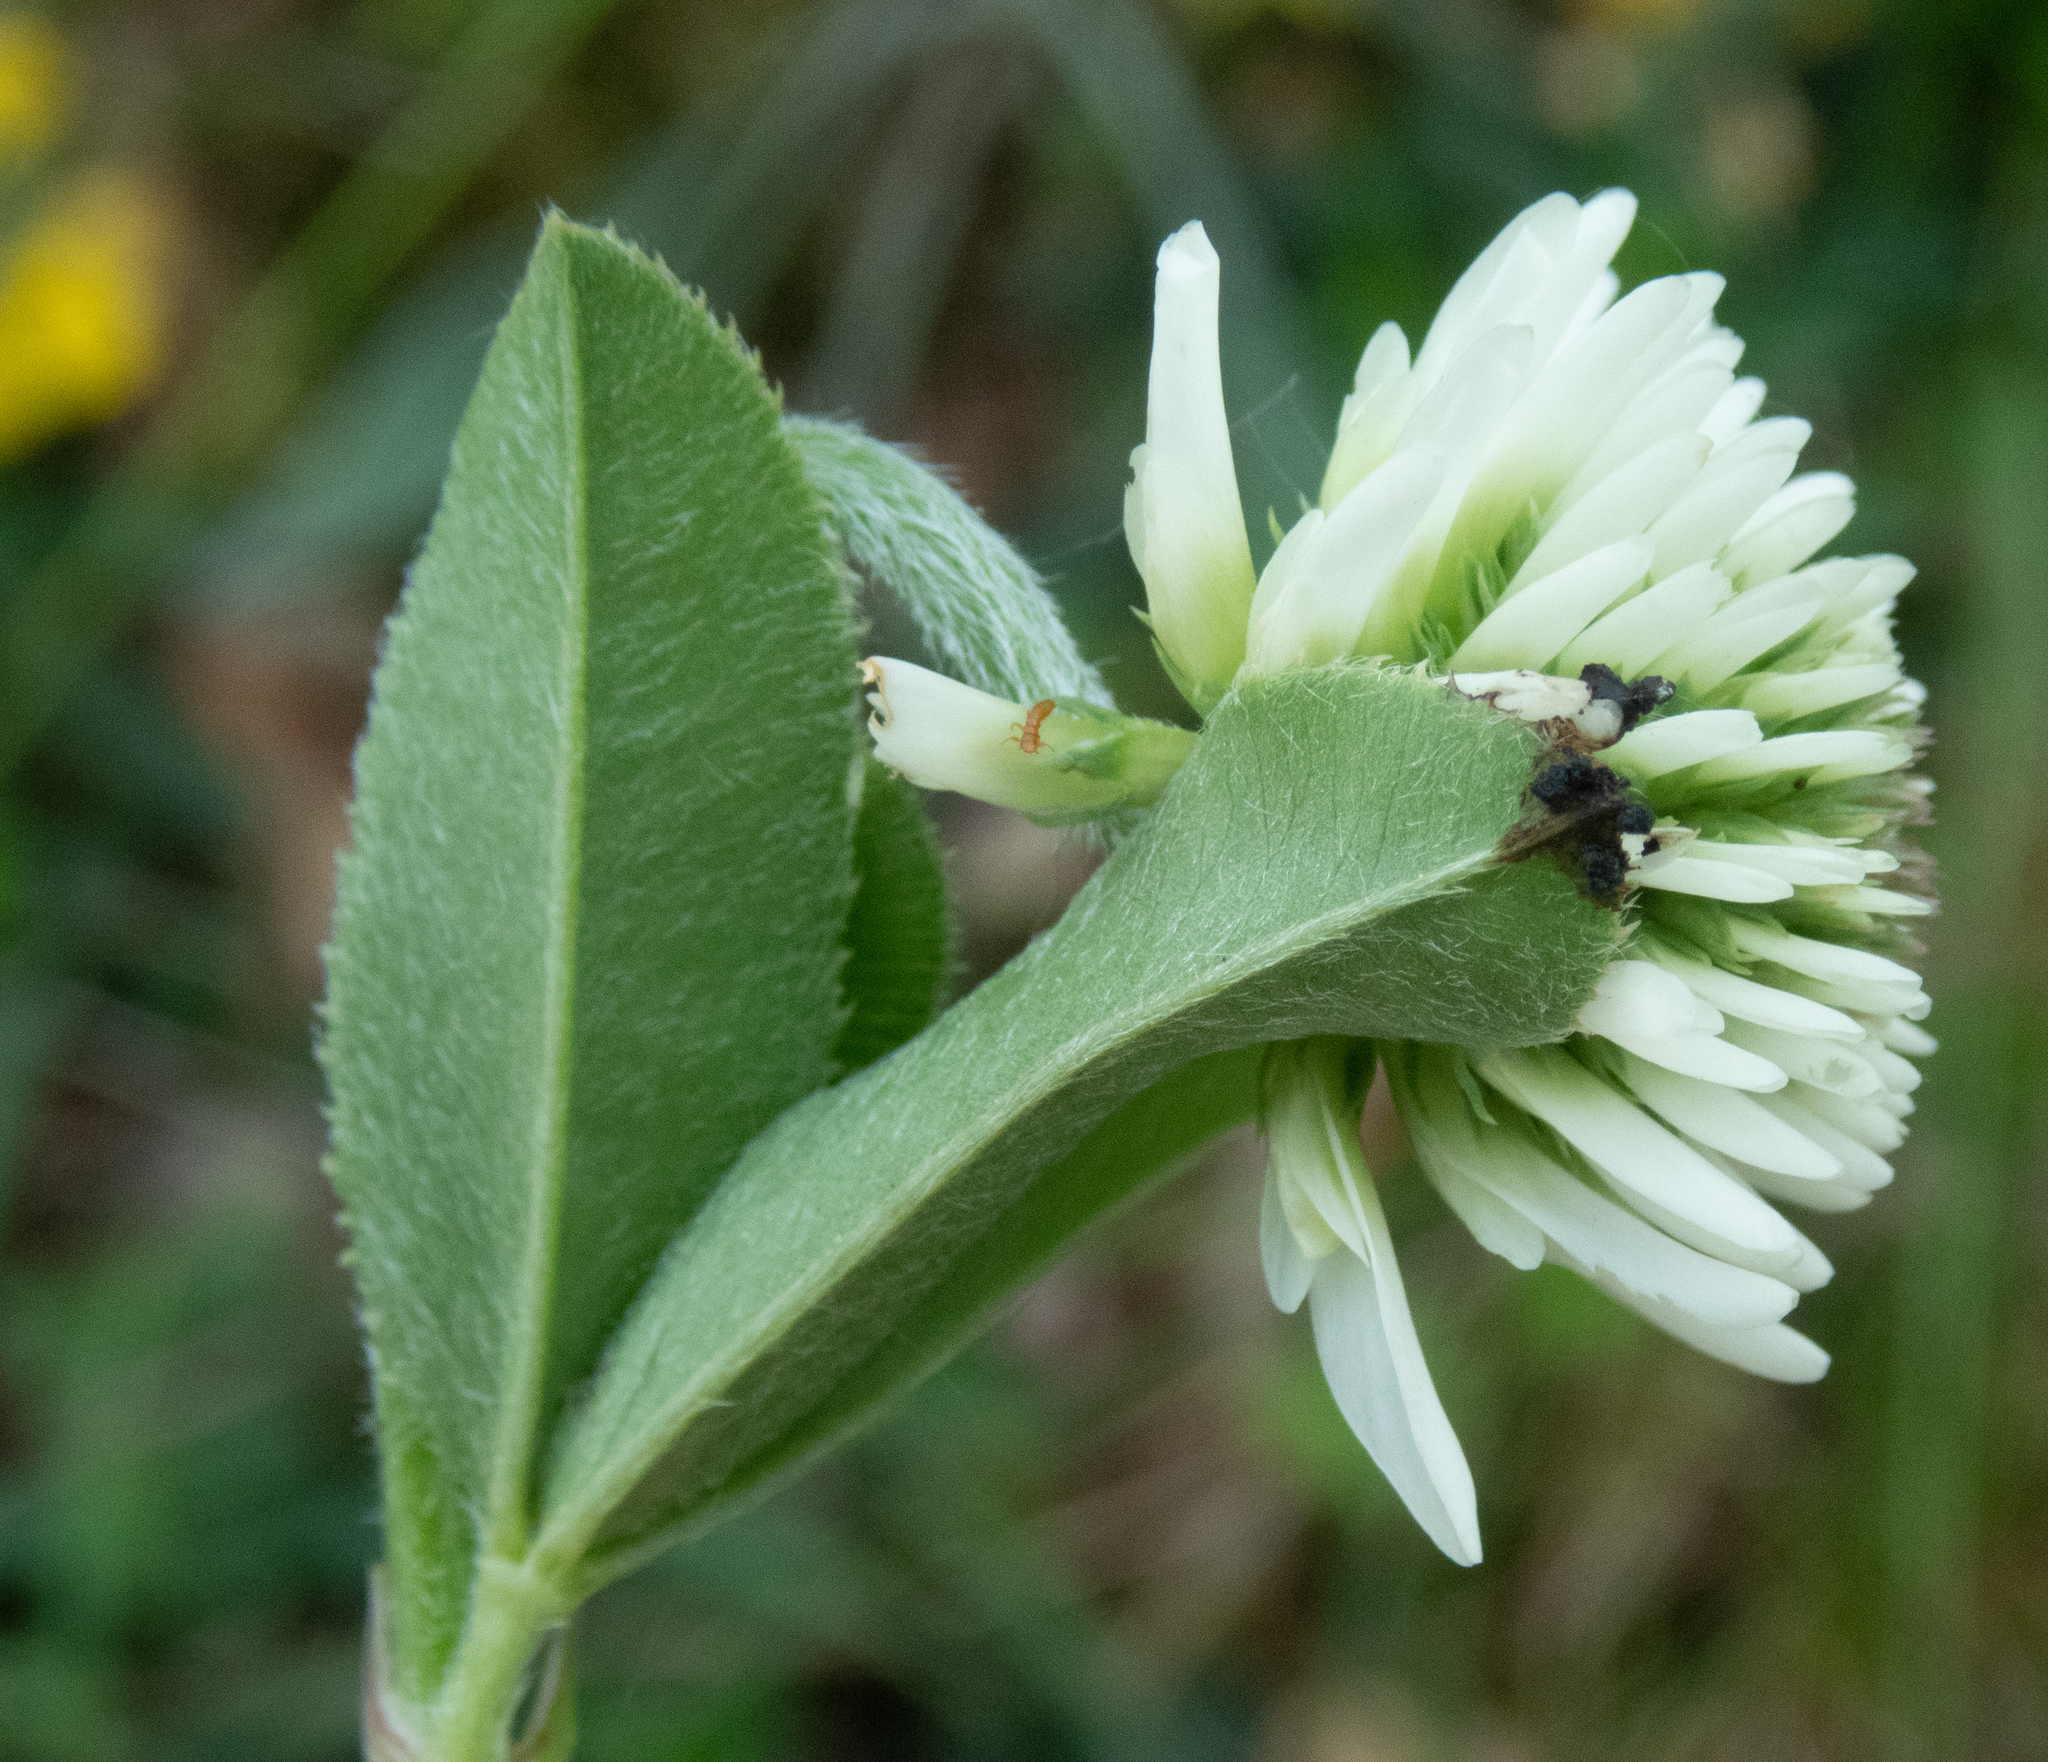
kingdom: Plantae
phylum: Tracheophyta
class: Magnoliopsida
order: Fabales
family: Fabaceae
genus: Trifolium
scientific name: Trifolium montanum
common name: Mountain clover
